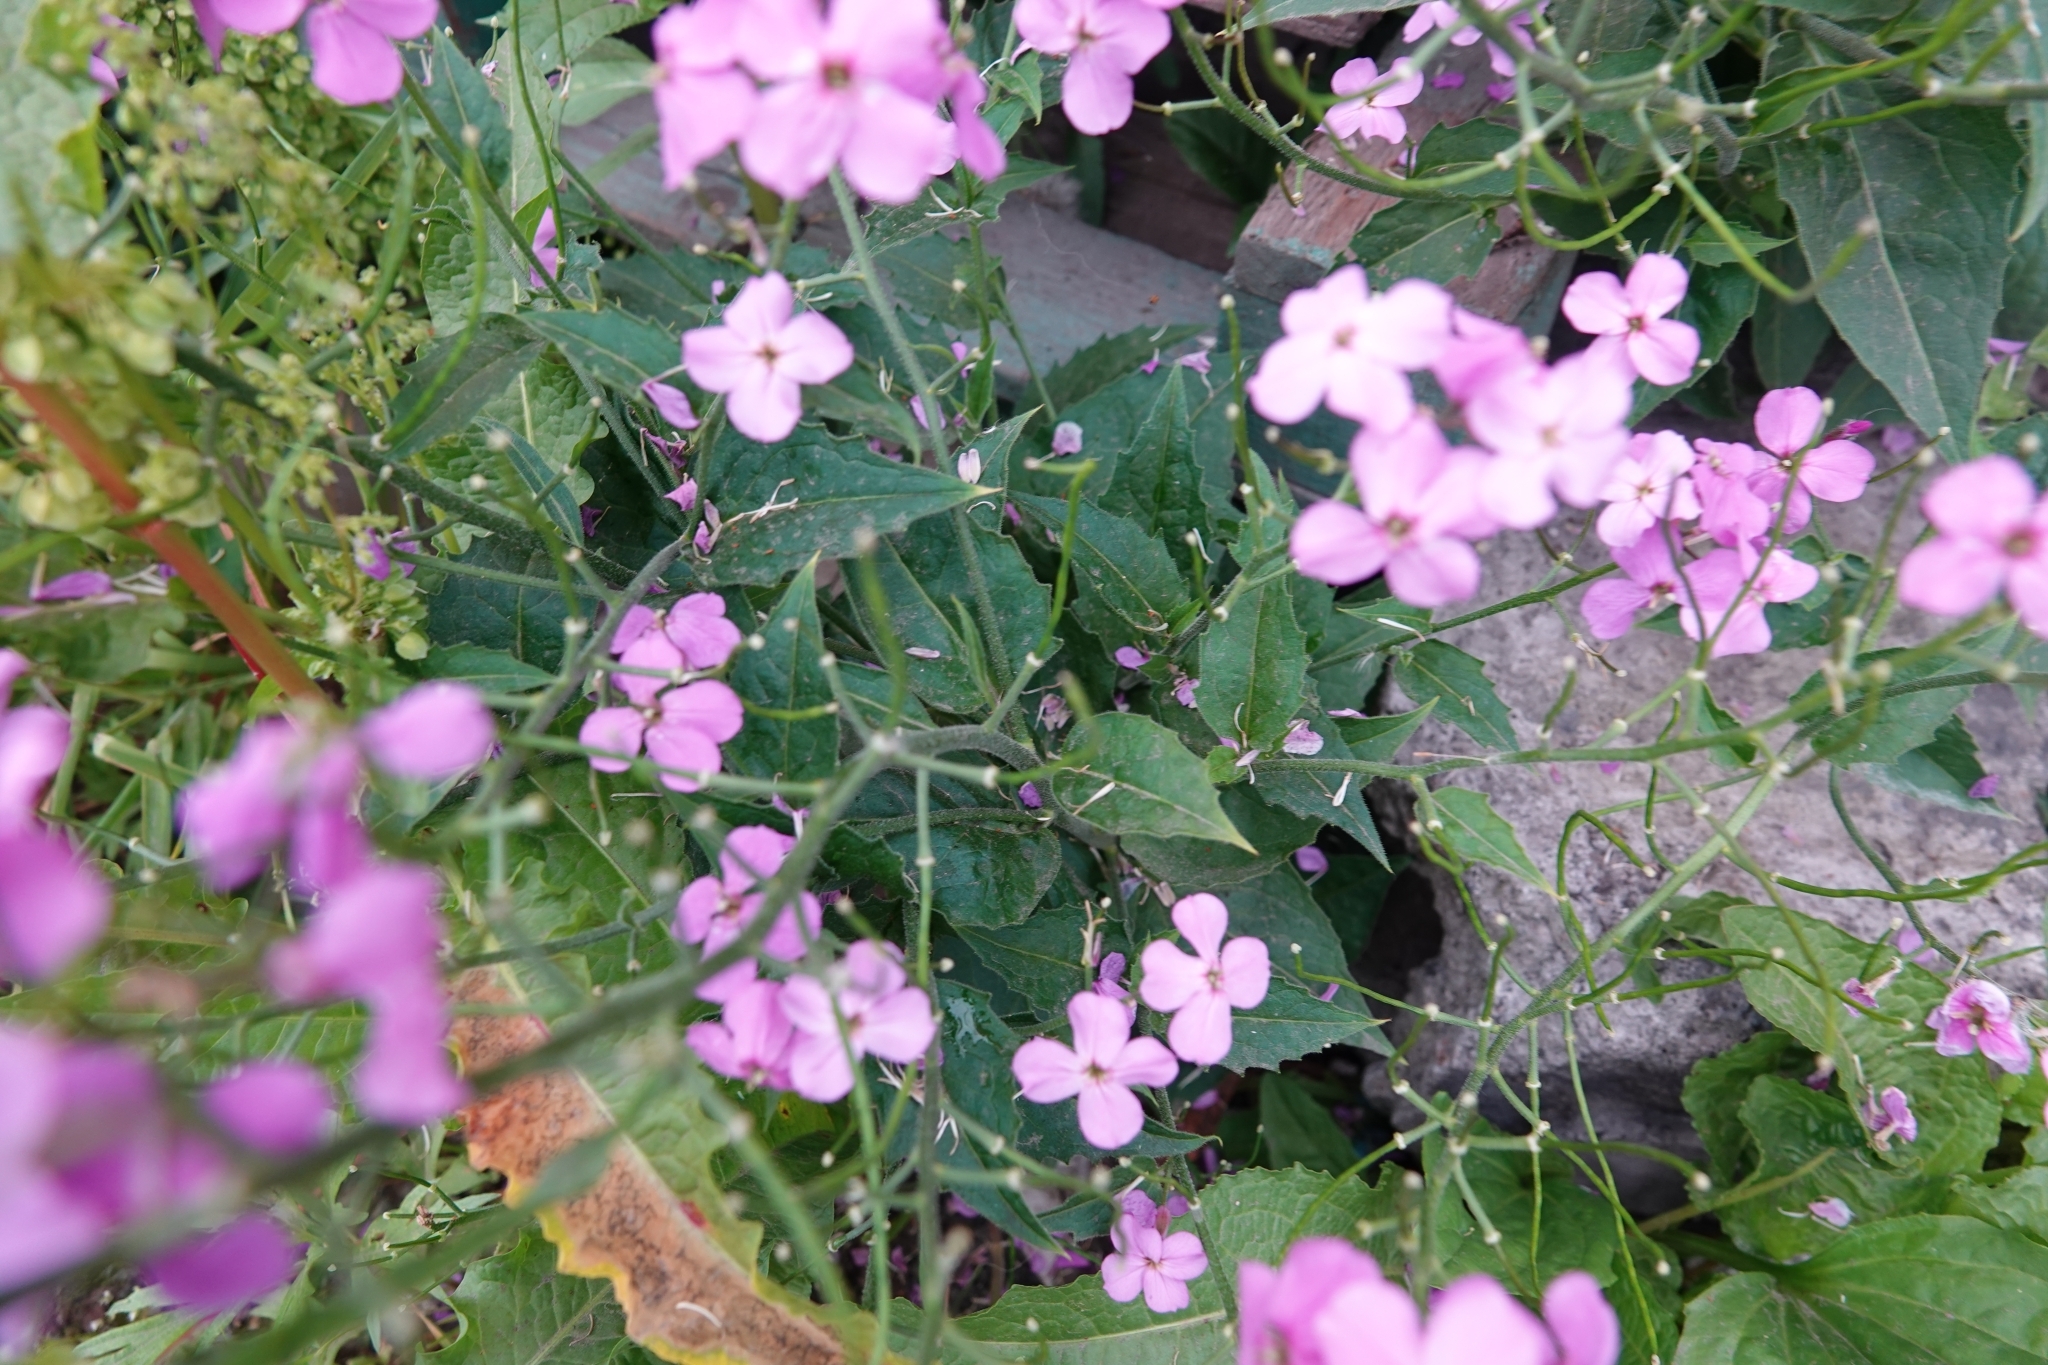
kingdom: Plantae
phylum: Tracheophyta
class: Magnoliopsida
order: Brassicales
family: Brassicaceae
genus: Hesperis
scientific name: Hesperis matronalis
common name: Dame's-violet
